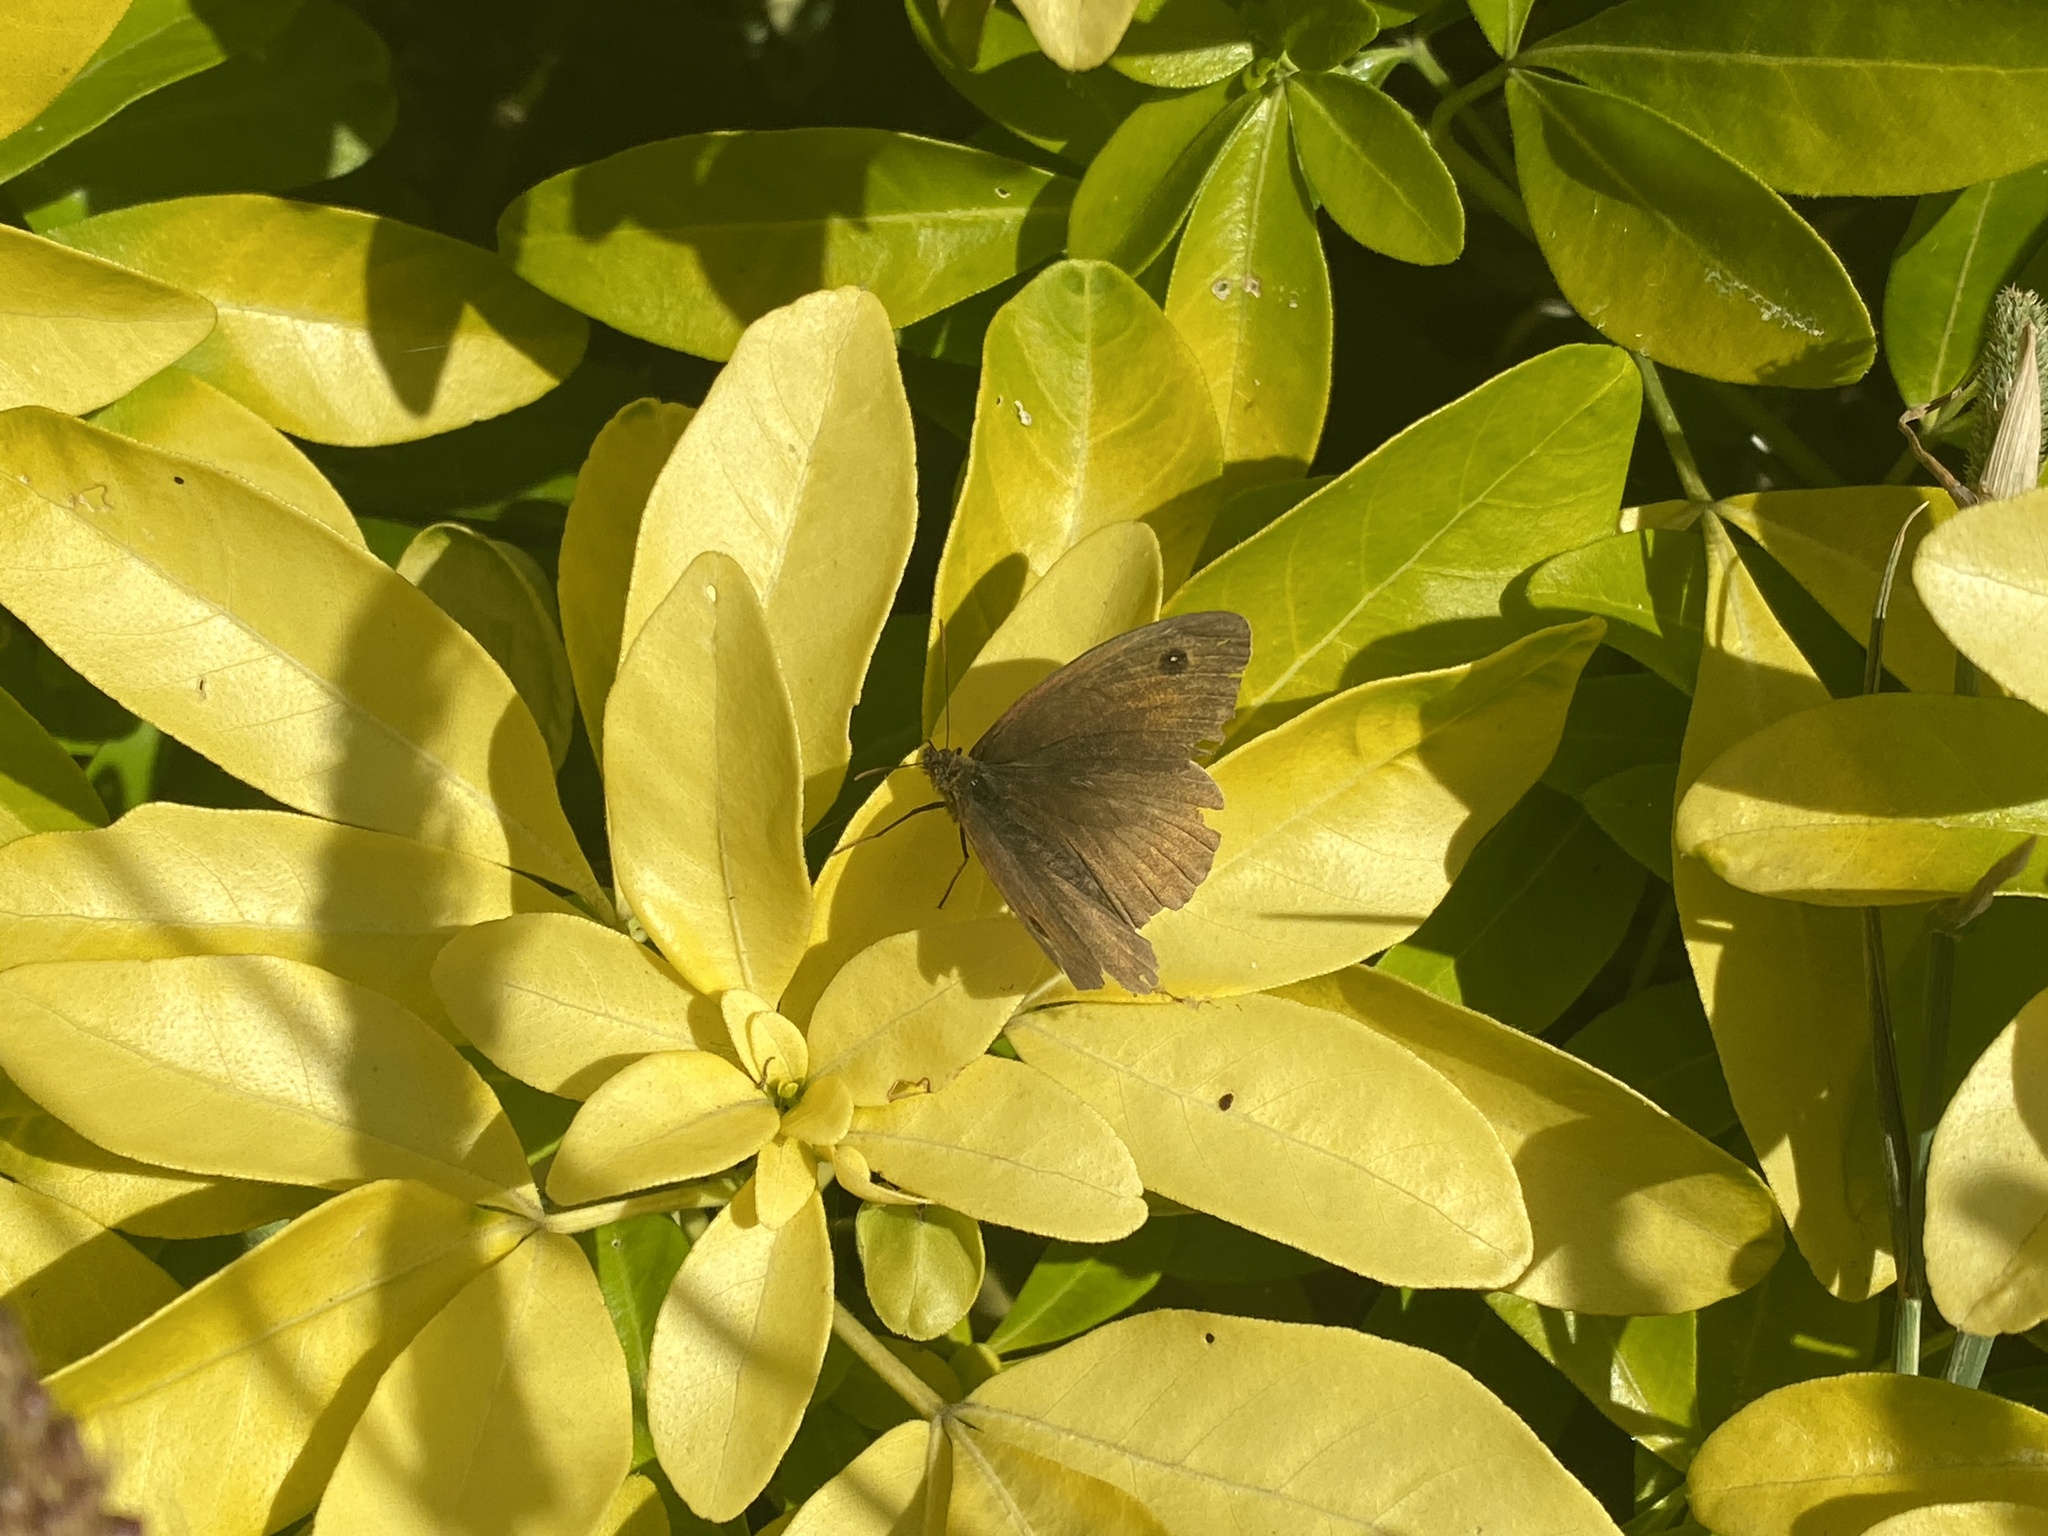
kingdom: Animalia
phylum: Arthropoda
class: Insecta
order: Lepidoptera
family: Nymphalidae
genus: Maniola
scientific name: Maniola jurtina
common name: Meadow brown
